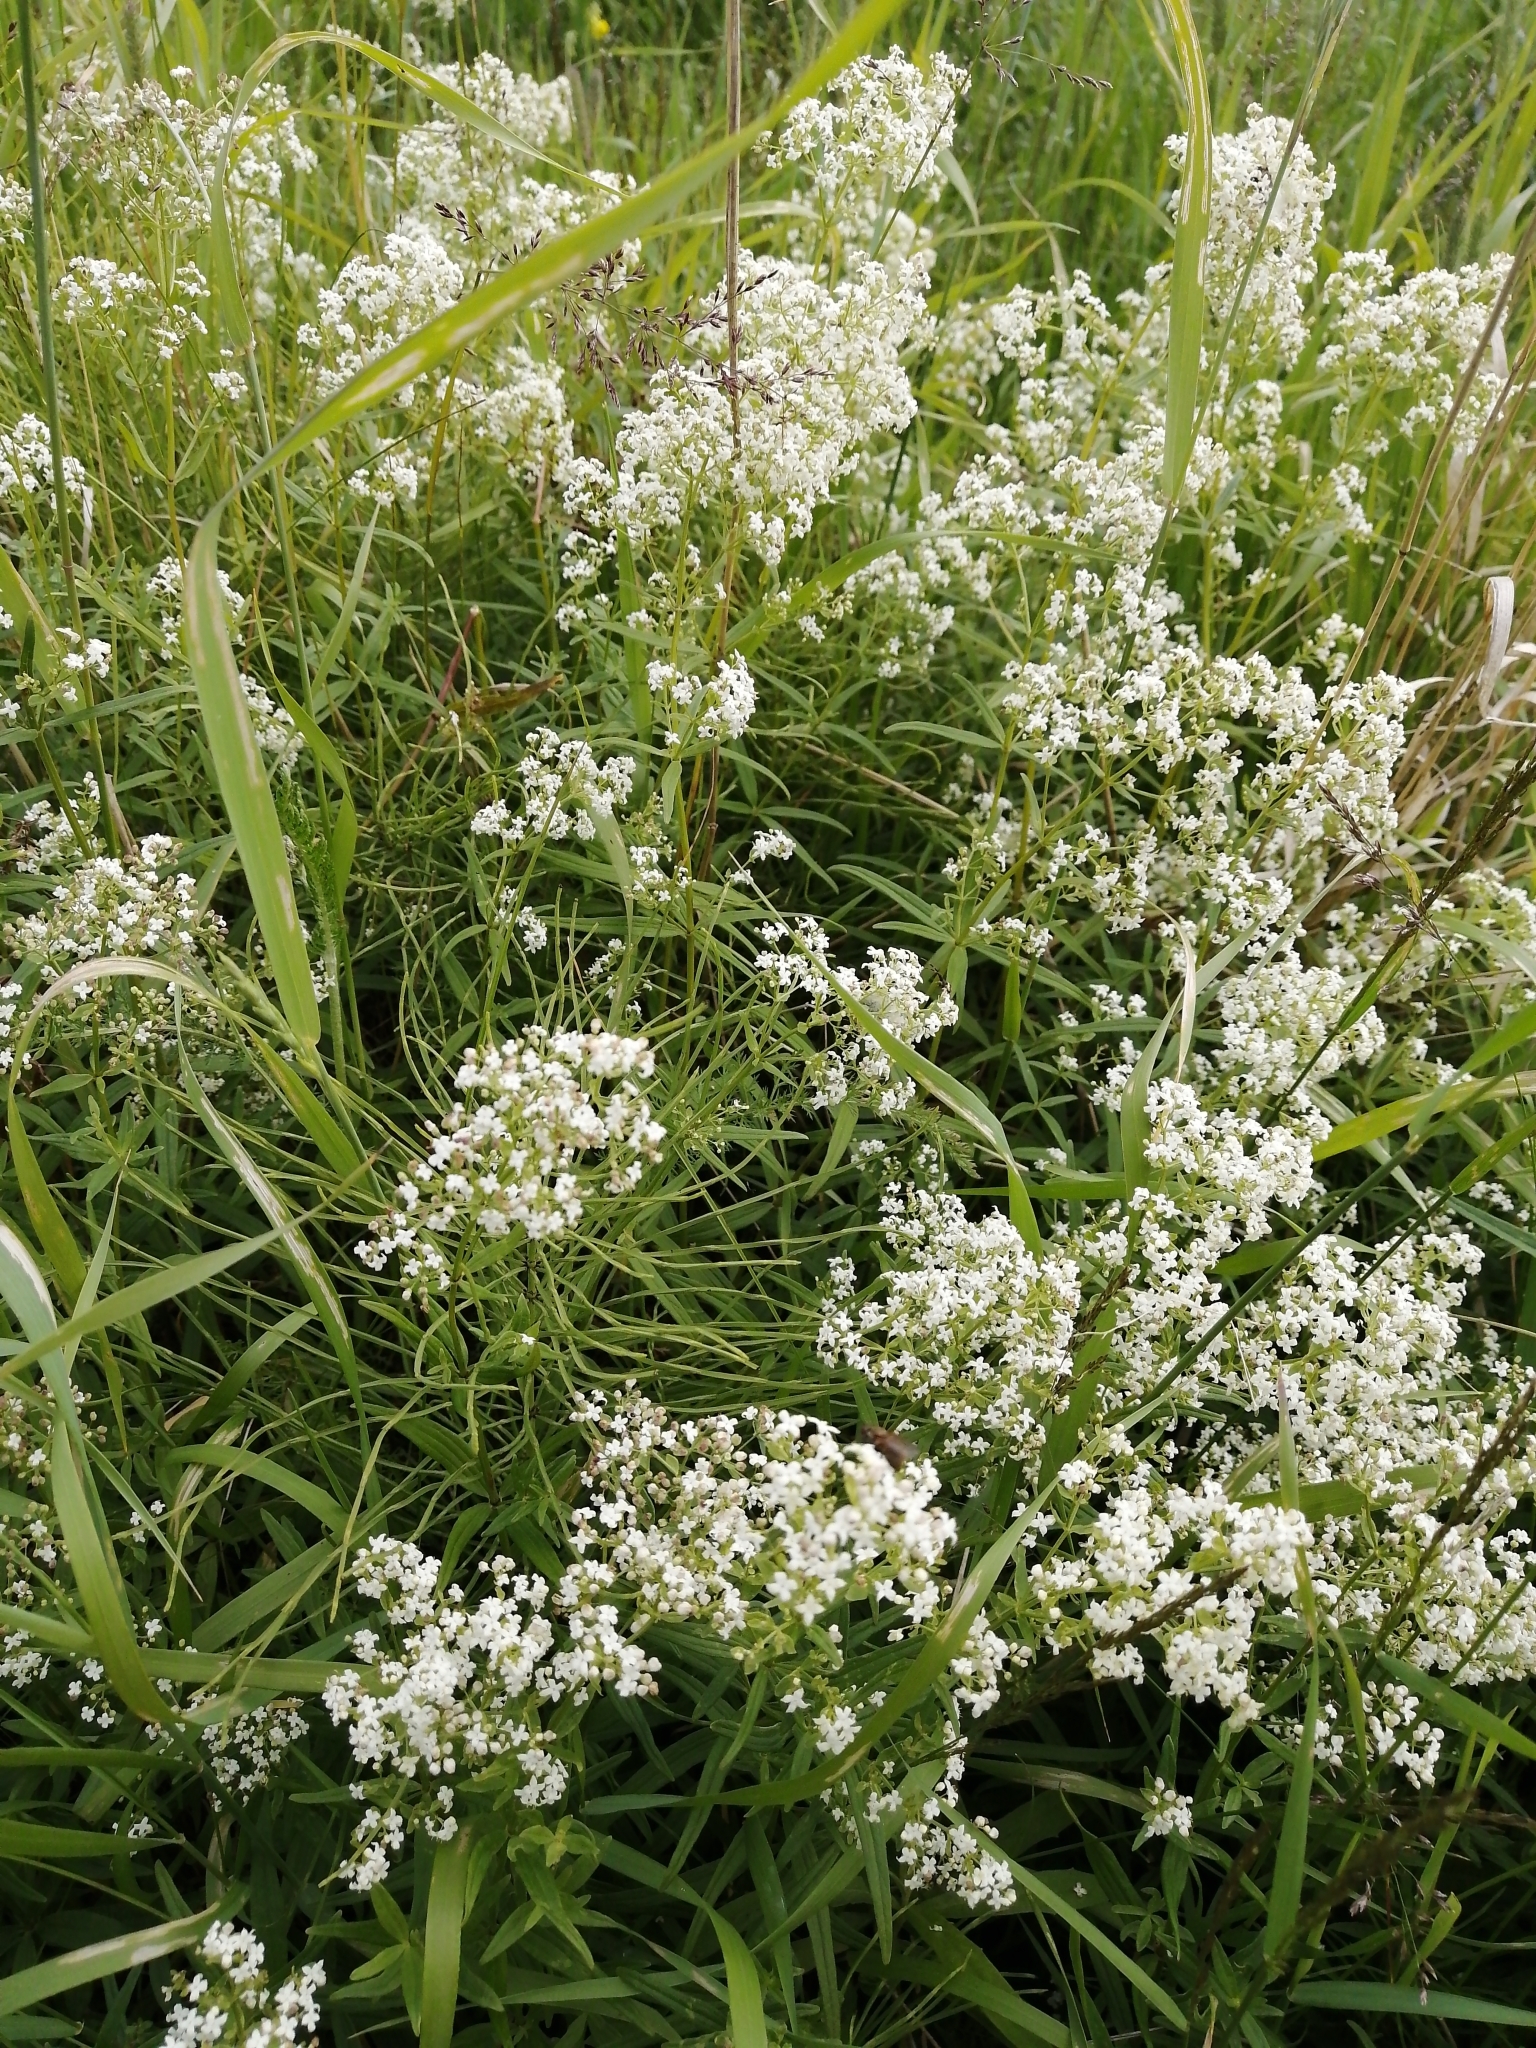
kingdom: Plantae
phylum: Tracheophyta
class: Magnoliopsida
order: Gentianales
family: Rubiaceae
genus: Galium
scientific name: Galium boreale
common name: Northern bedstraw
